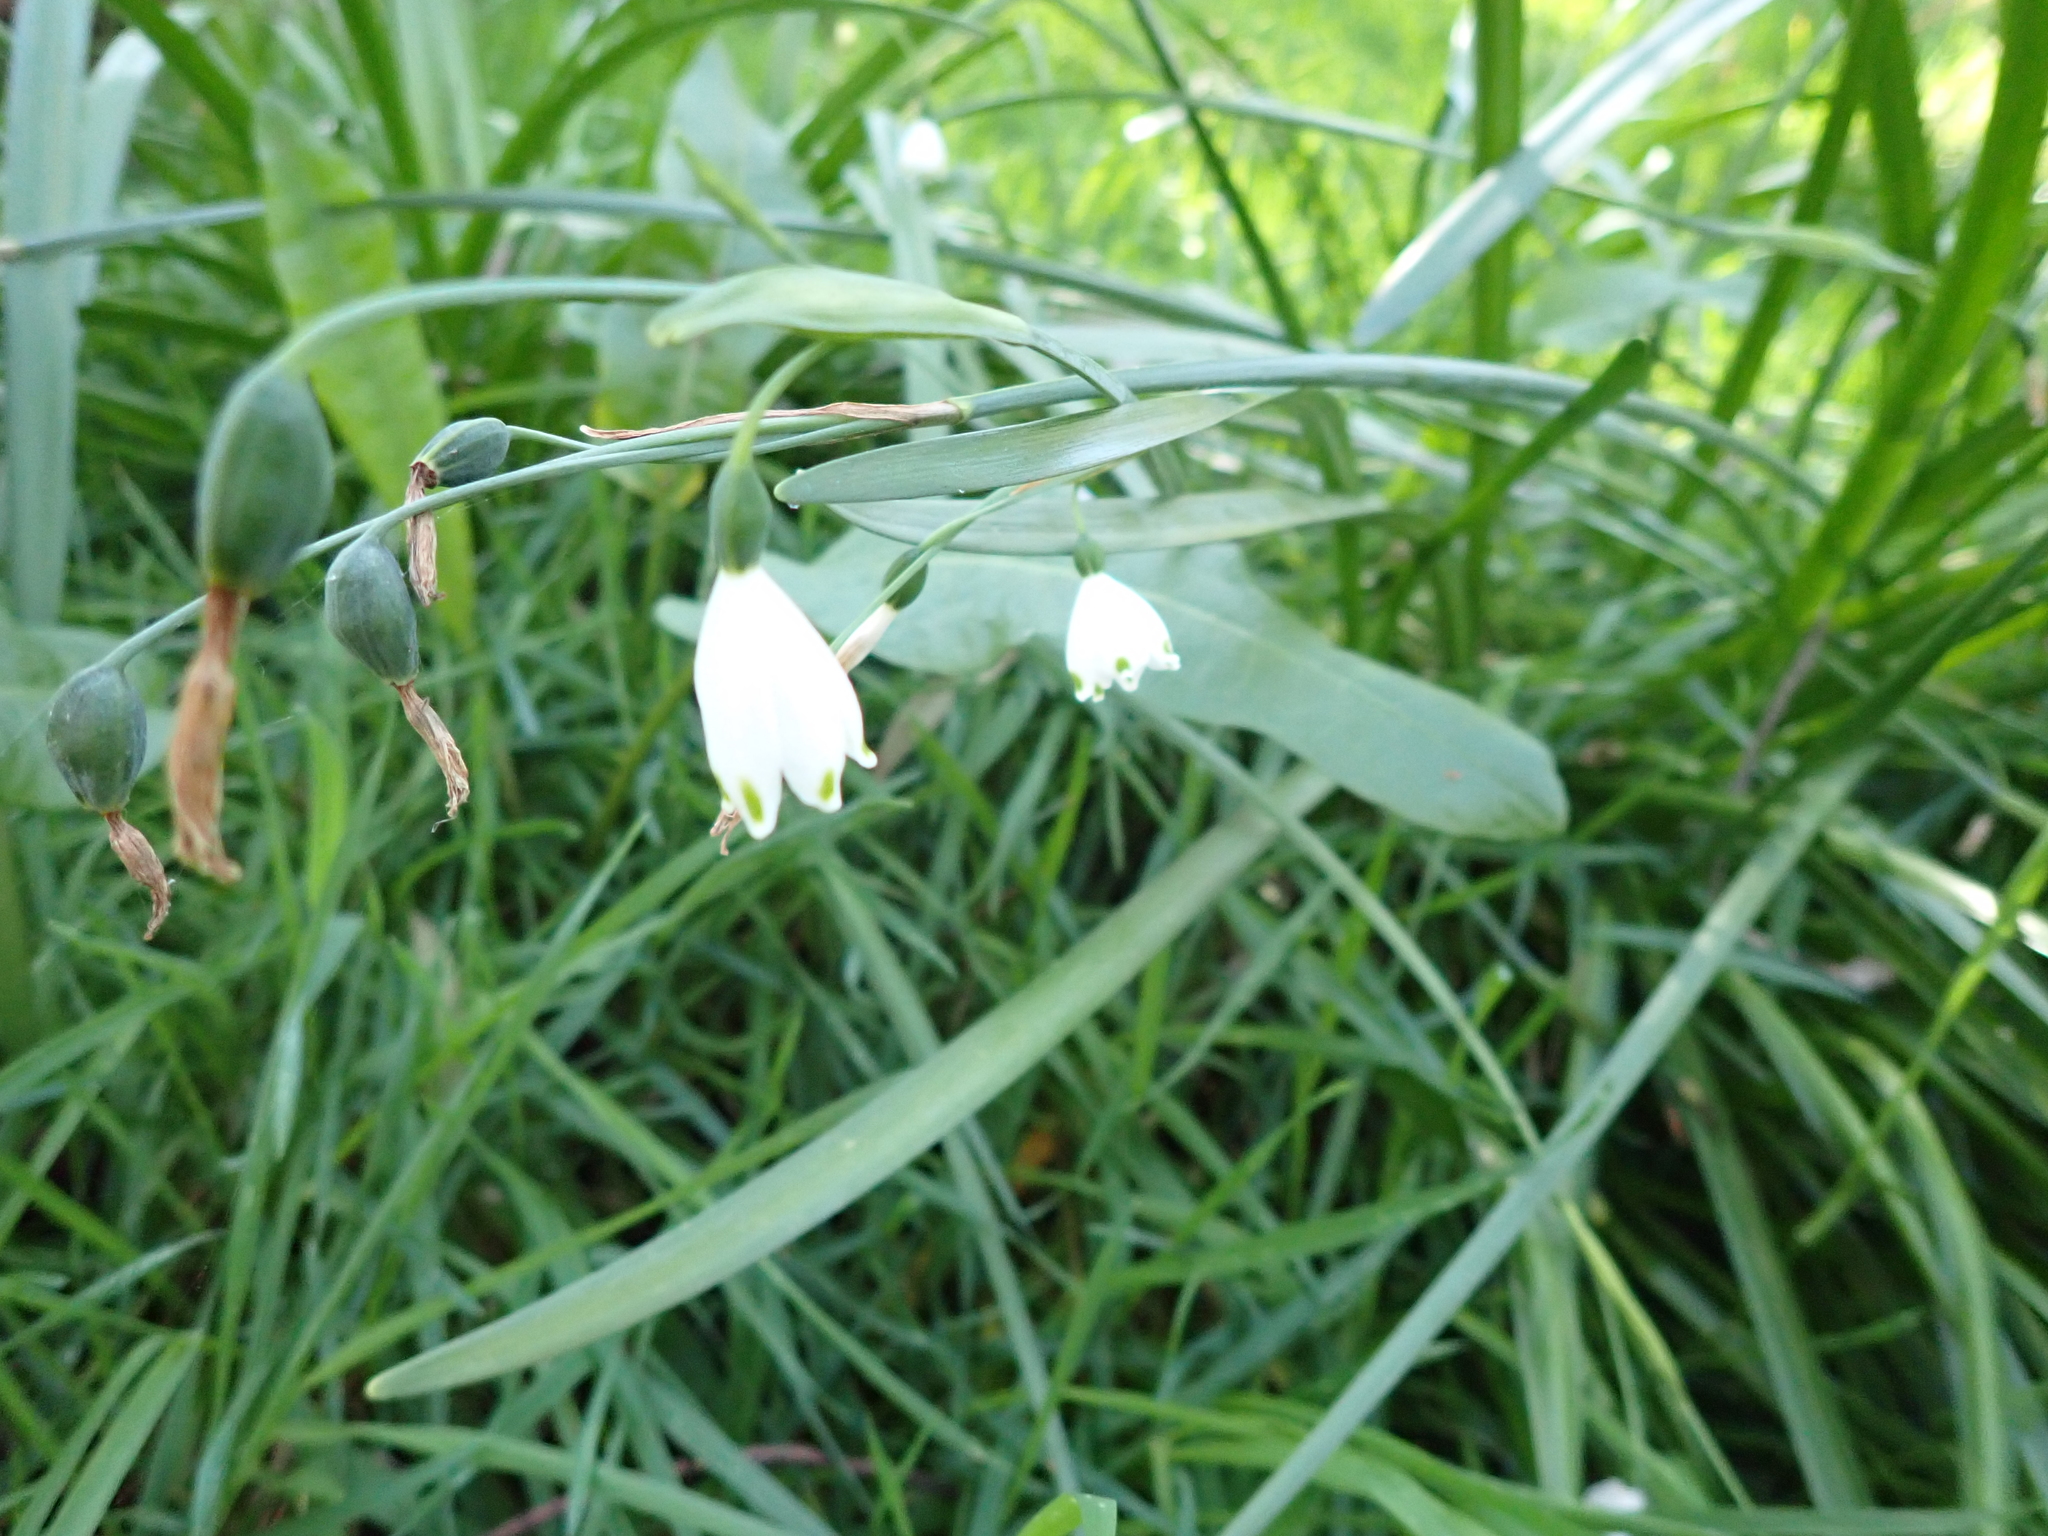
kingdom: Plantae
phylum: Tracheophyta
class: Liliopsida
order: Asparagales
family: Amaryllidaceae
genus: Leucojum
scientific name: Leucojum aestivum
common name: Summer snowflake
